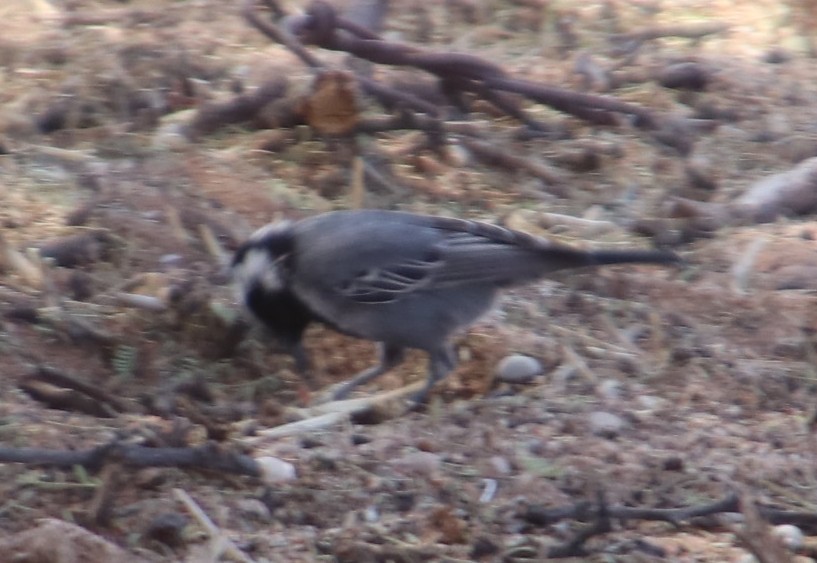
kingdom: Animalia
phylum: Chordata
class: Aves
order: Passeriformes
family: Paridae
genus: Parus
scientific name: Parus cinerascens
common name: Ashy tit
